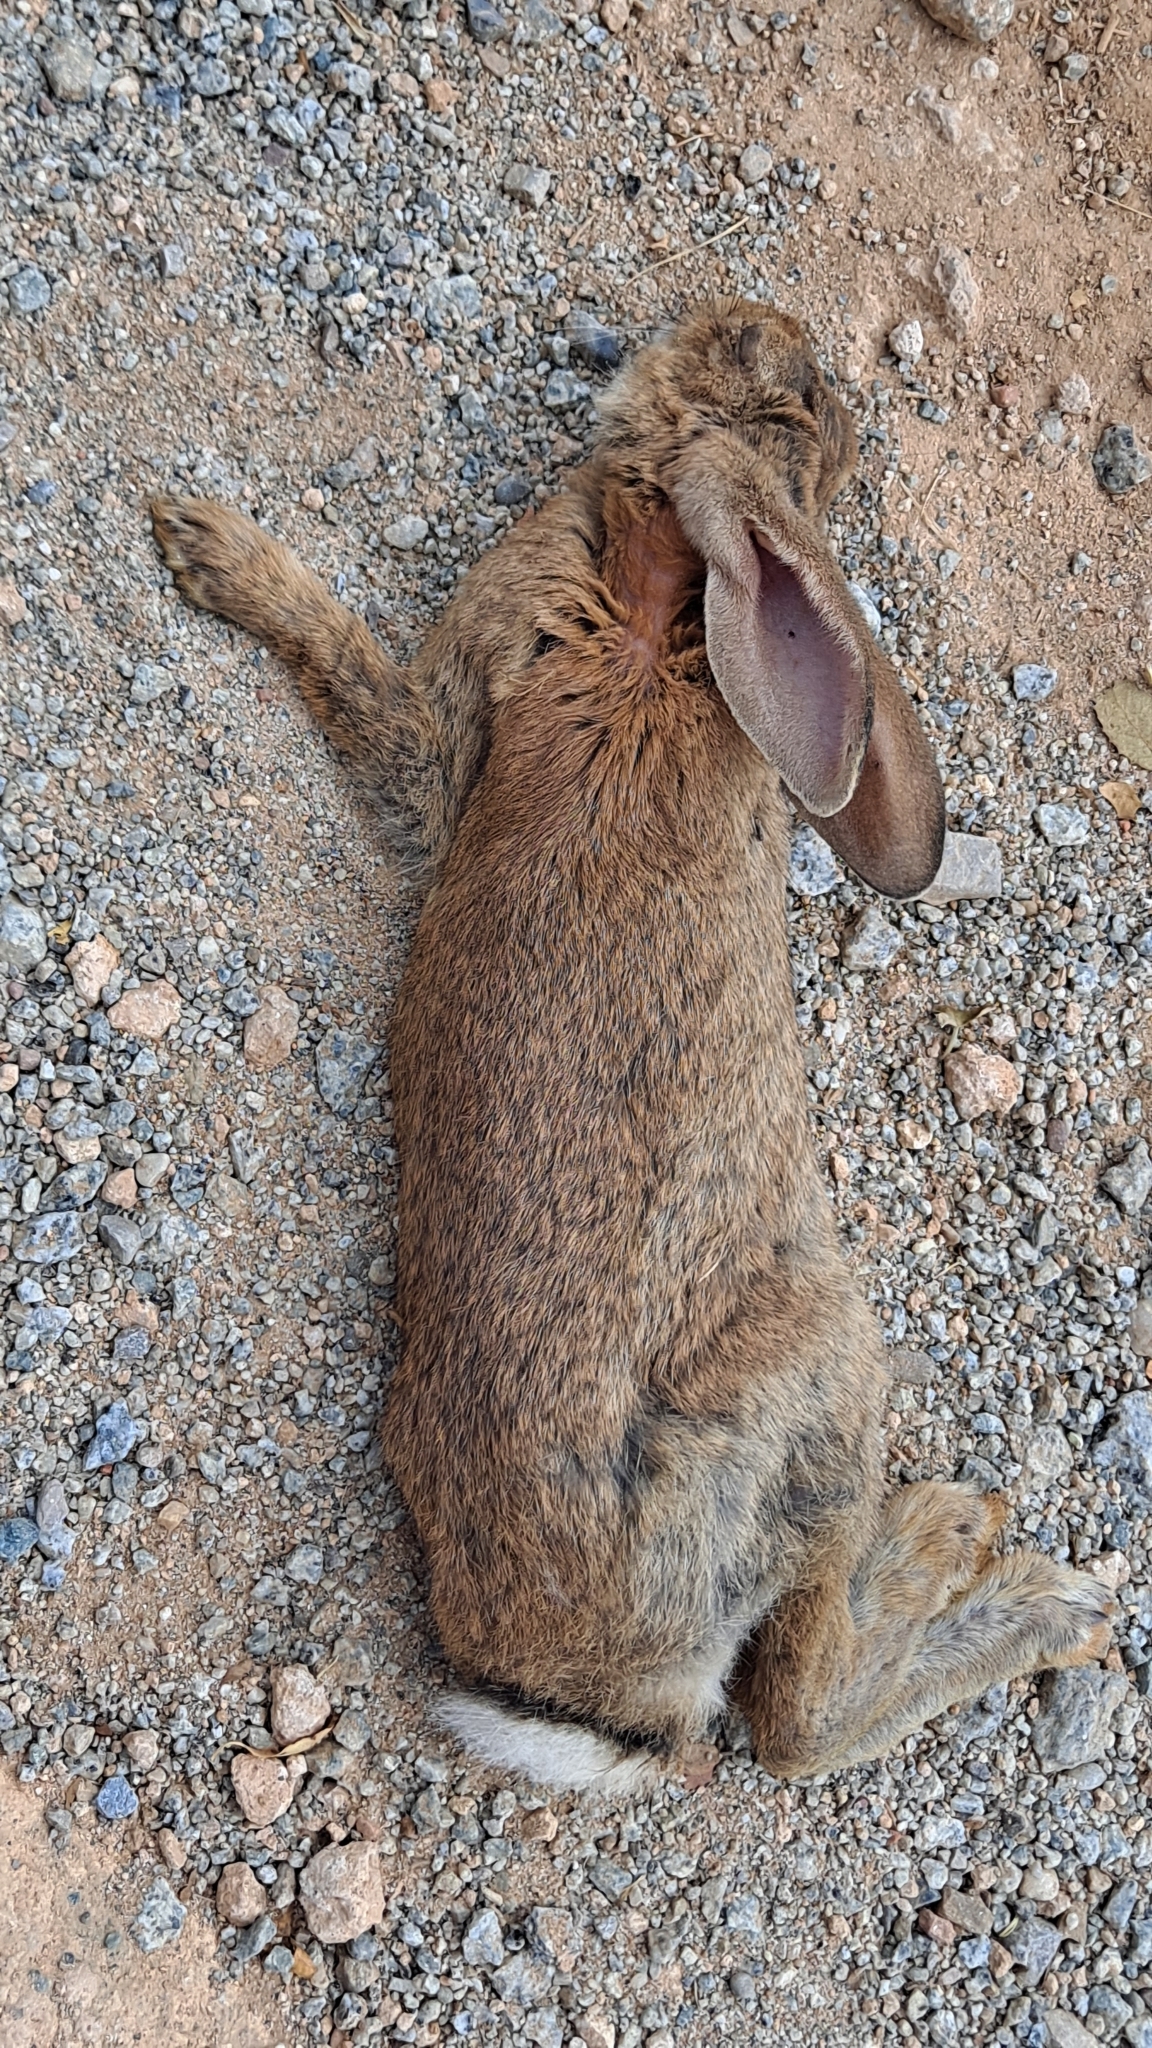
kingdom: Animalia
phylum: Chordata
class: Mammalia
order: Lagomorpha
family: Leporidae
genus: Oryctolagus
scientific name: Oryctolagus cuniculus
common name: European rabbit
